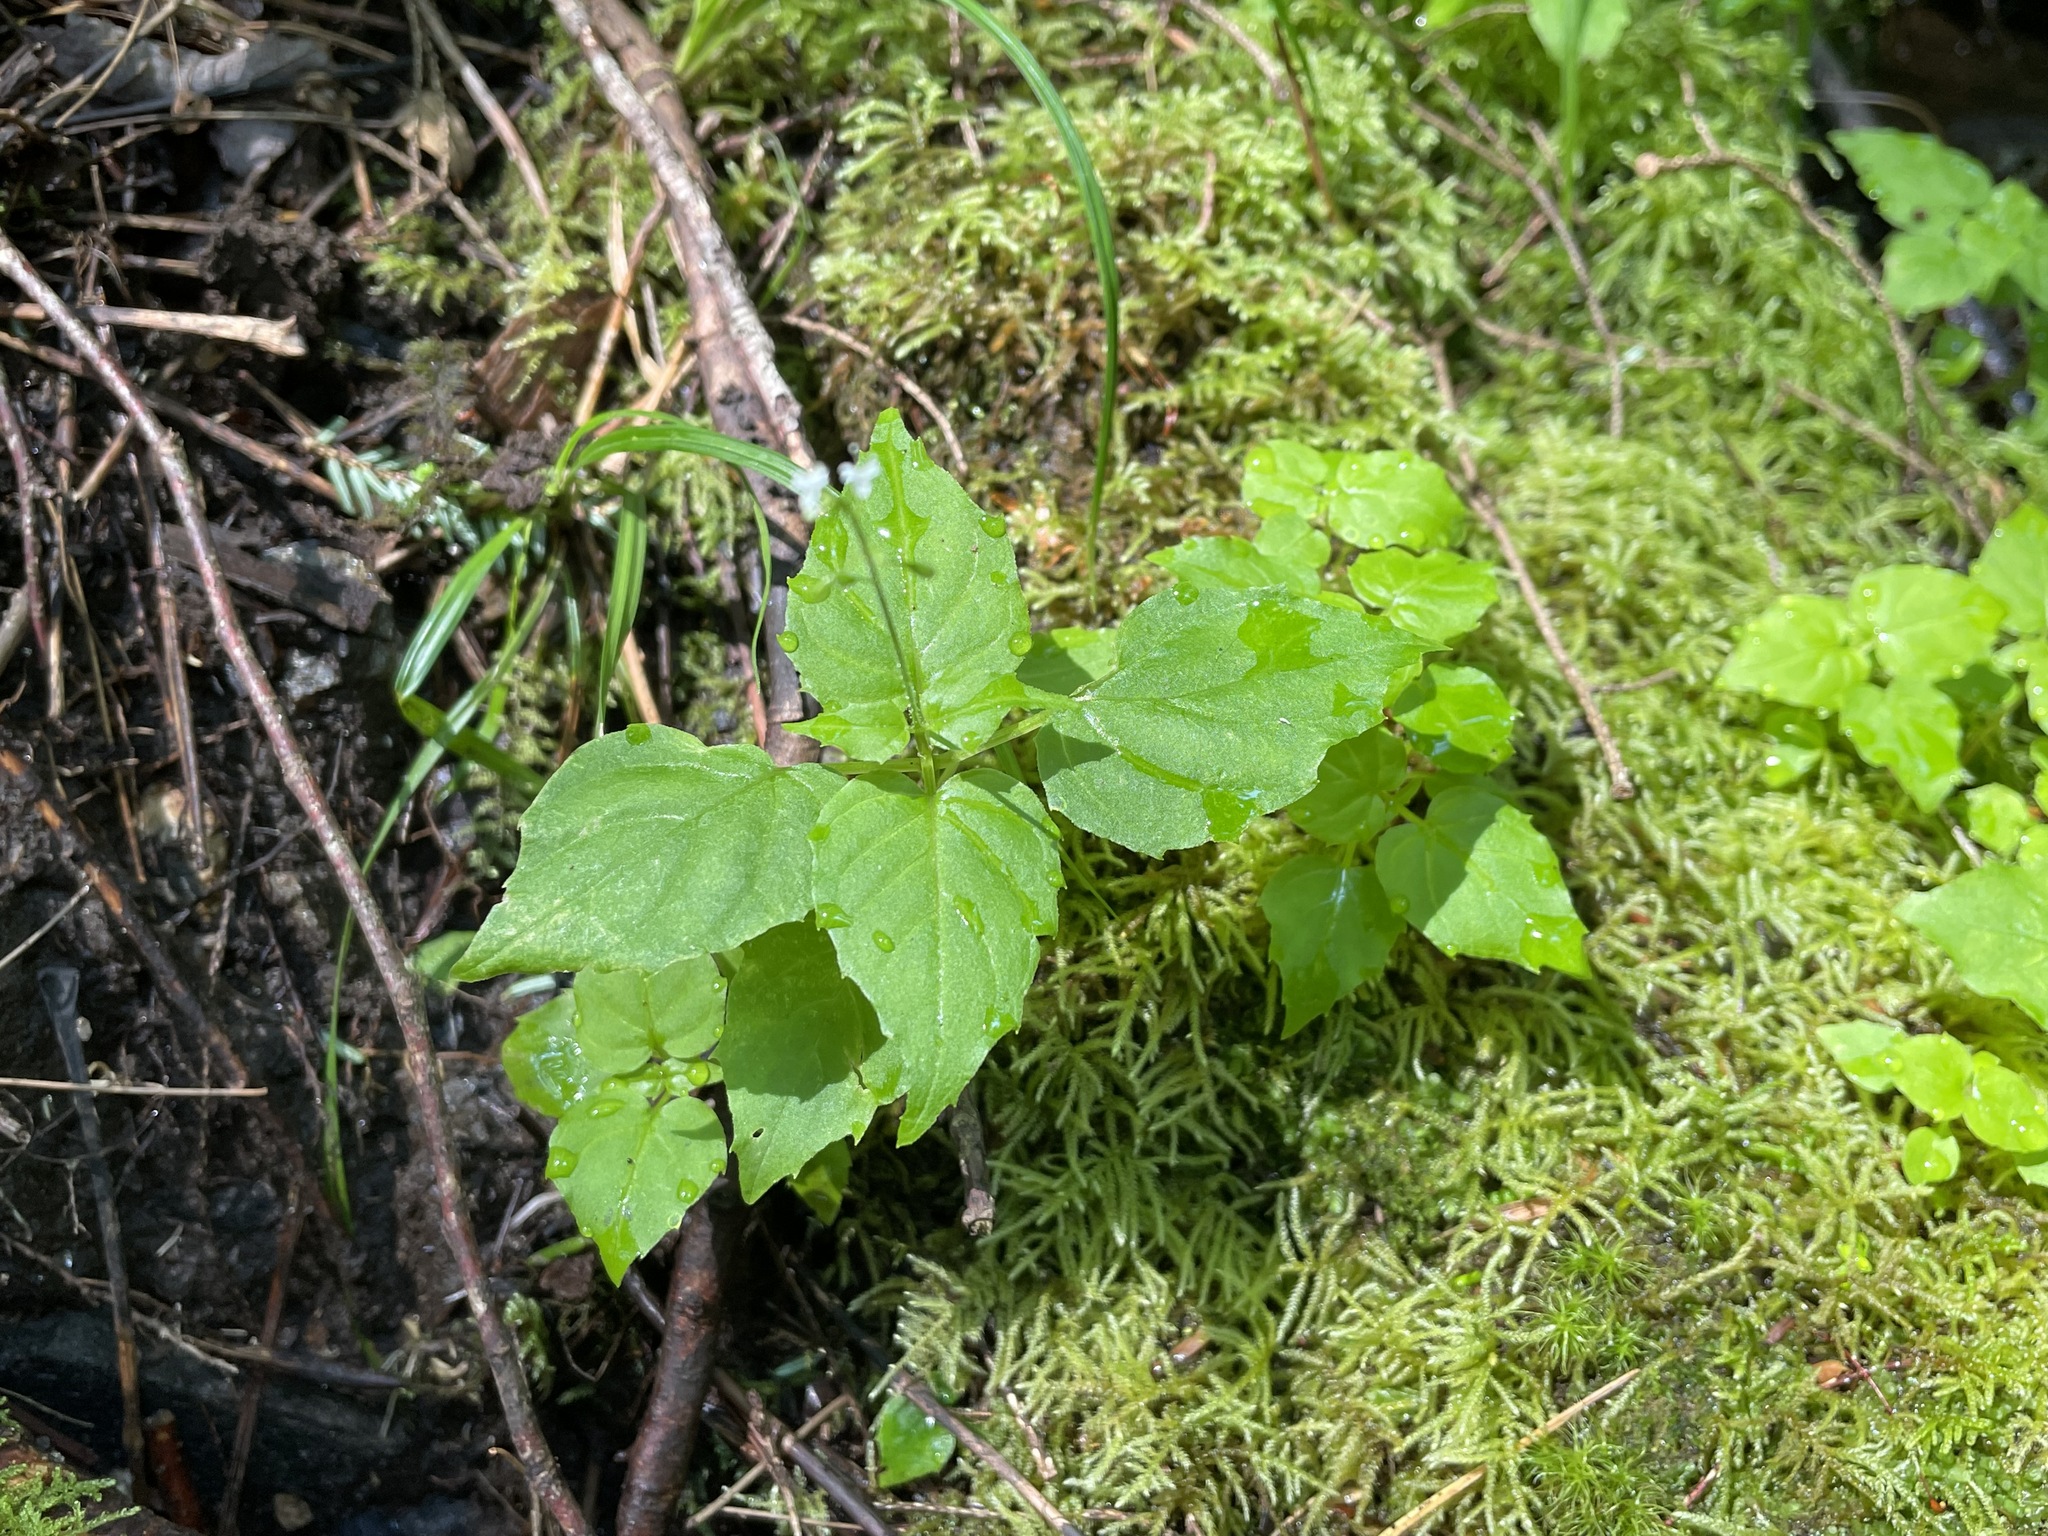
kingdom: Plantae
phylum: Tracheophyta
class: Magnoliopsida
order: Myrtales
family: Onagraceae
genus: Circaea
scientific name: Circaea alpina
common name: Alpine enchanter's-nightshade
